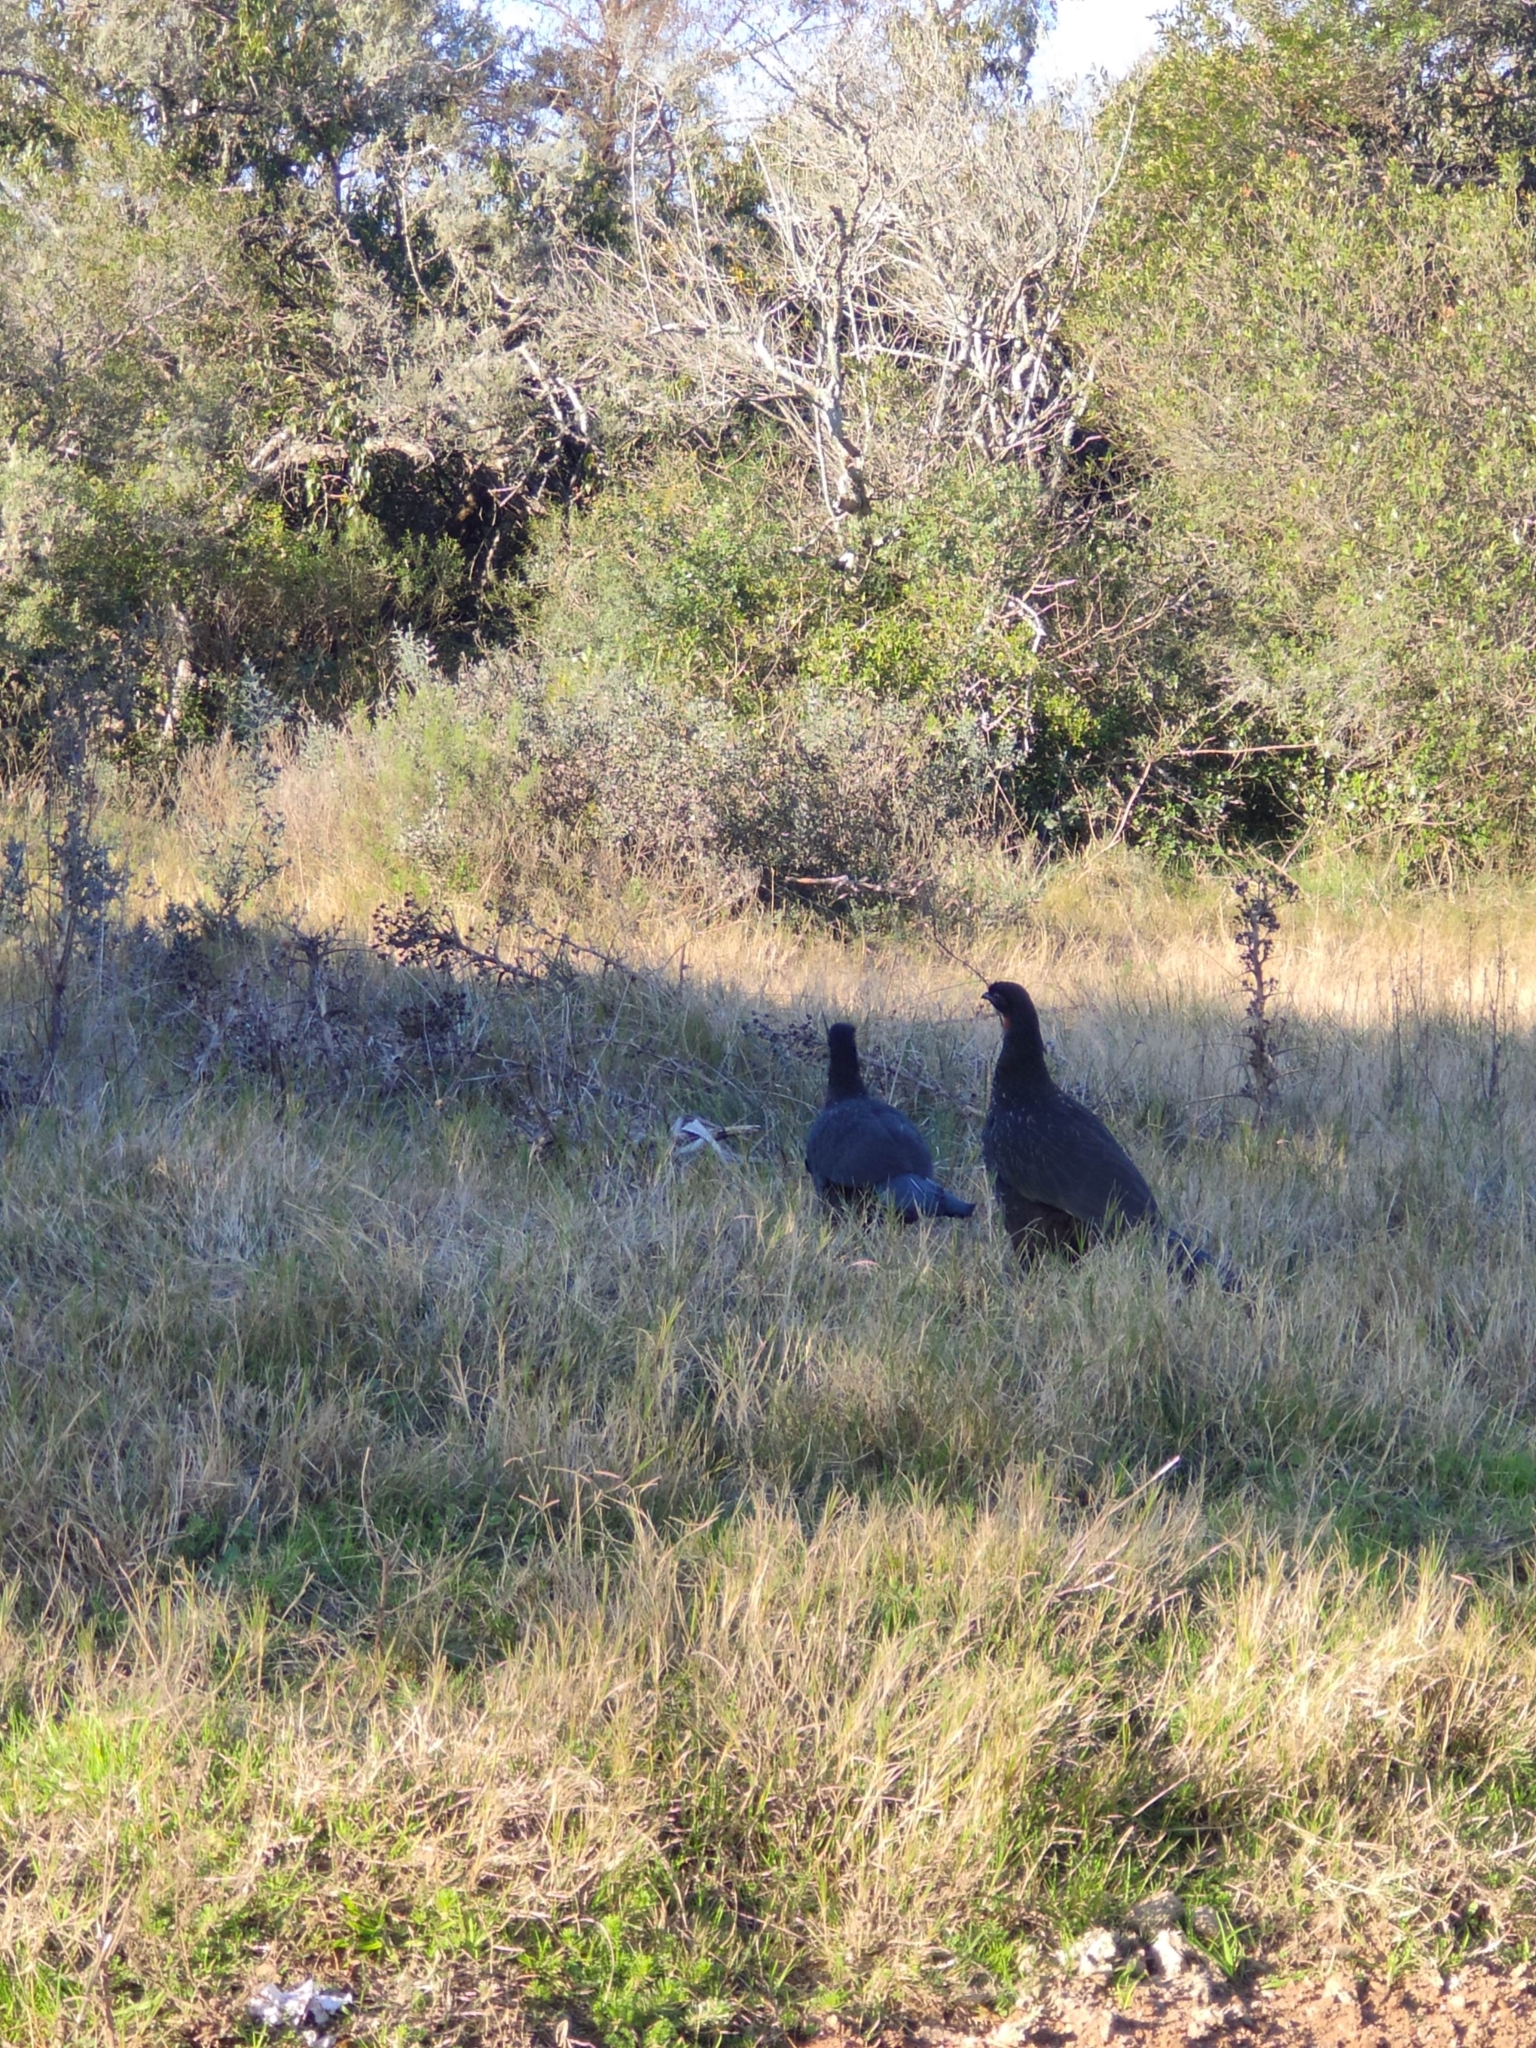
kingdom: Animalia
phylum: Chordata
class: Aves
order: Galliformes
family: Cracidae
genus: Penelope
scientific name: Penelope obscura
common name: Dusky-legged guan
